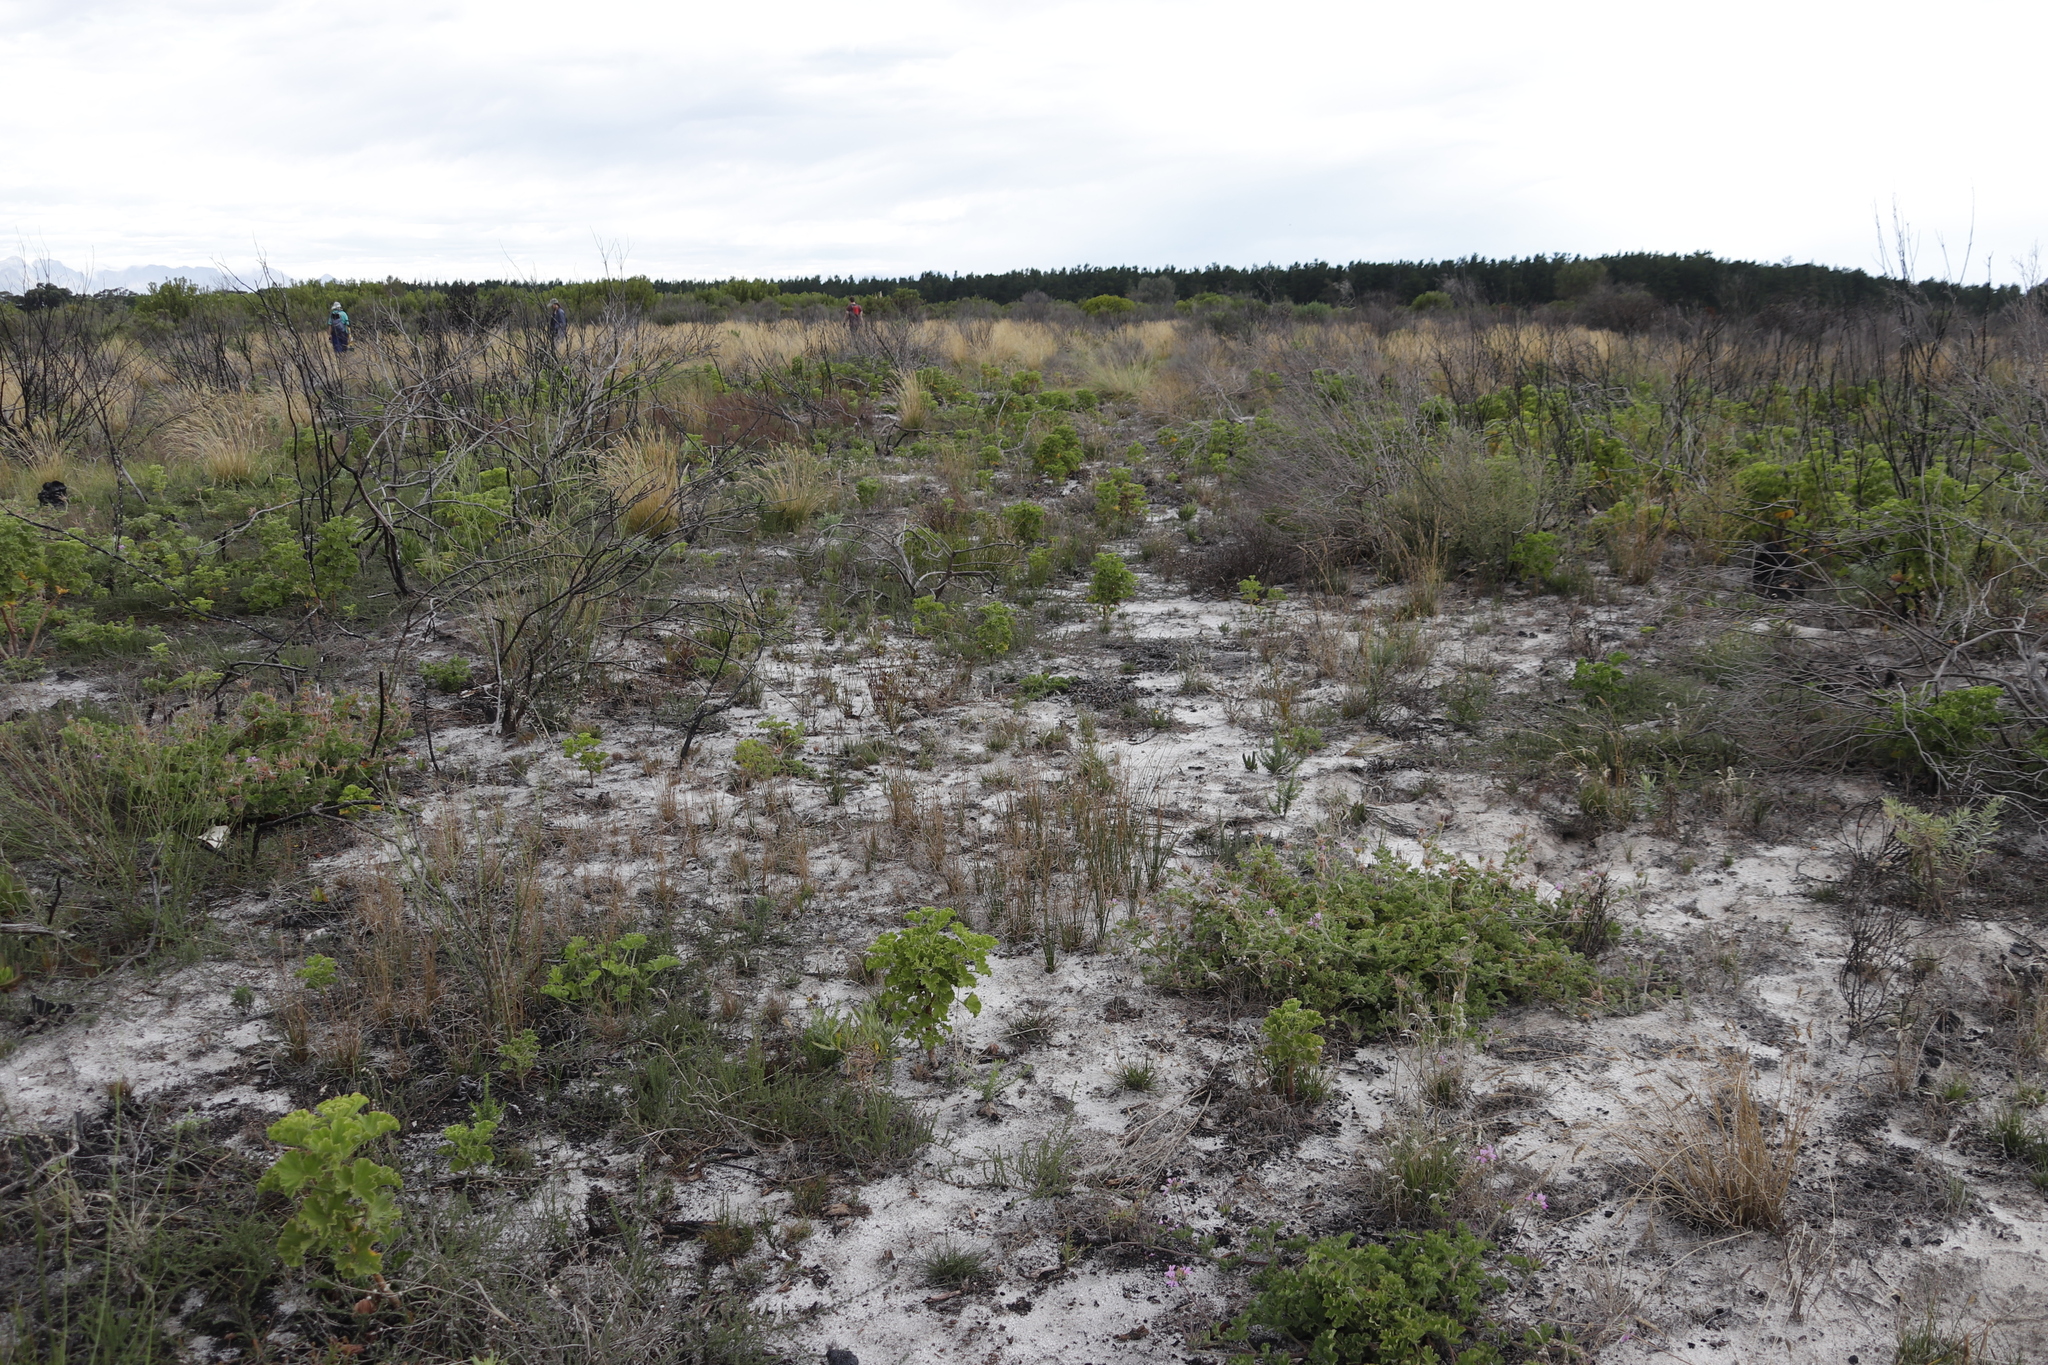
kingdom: Plantae
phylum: Tracheophyta
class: Magnoliopsida
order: Geraniales
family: Geraniaceae
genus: Pelargonium
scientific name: Pelargonium cucullatum
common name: Tree pelargonium
